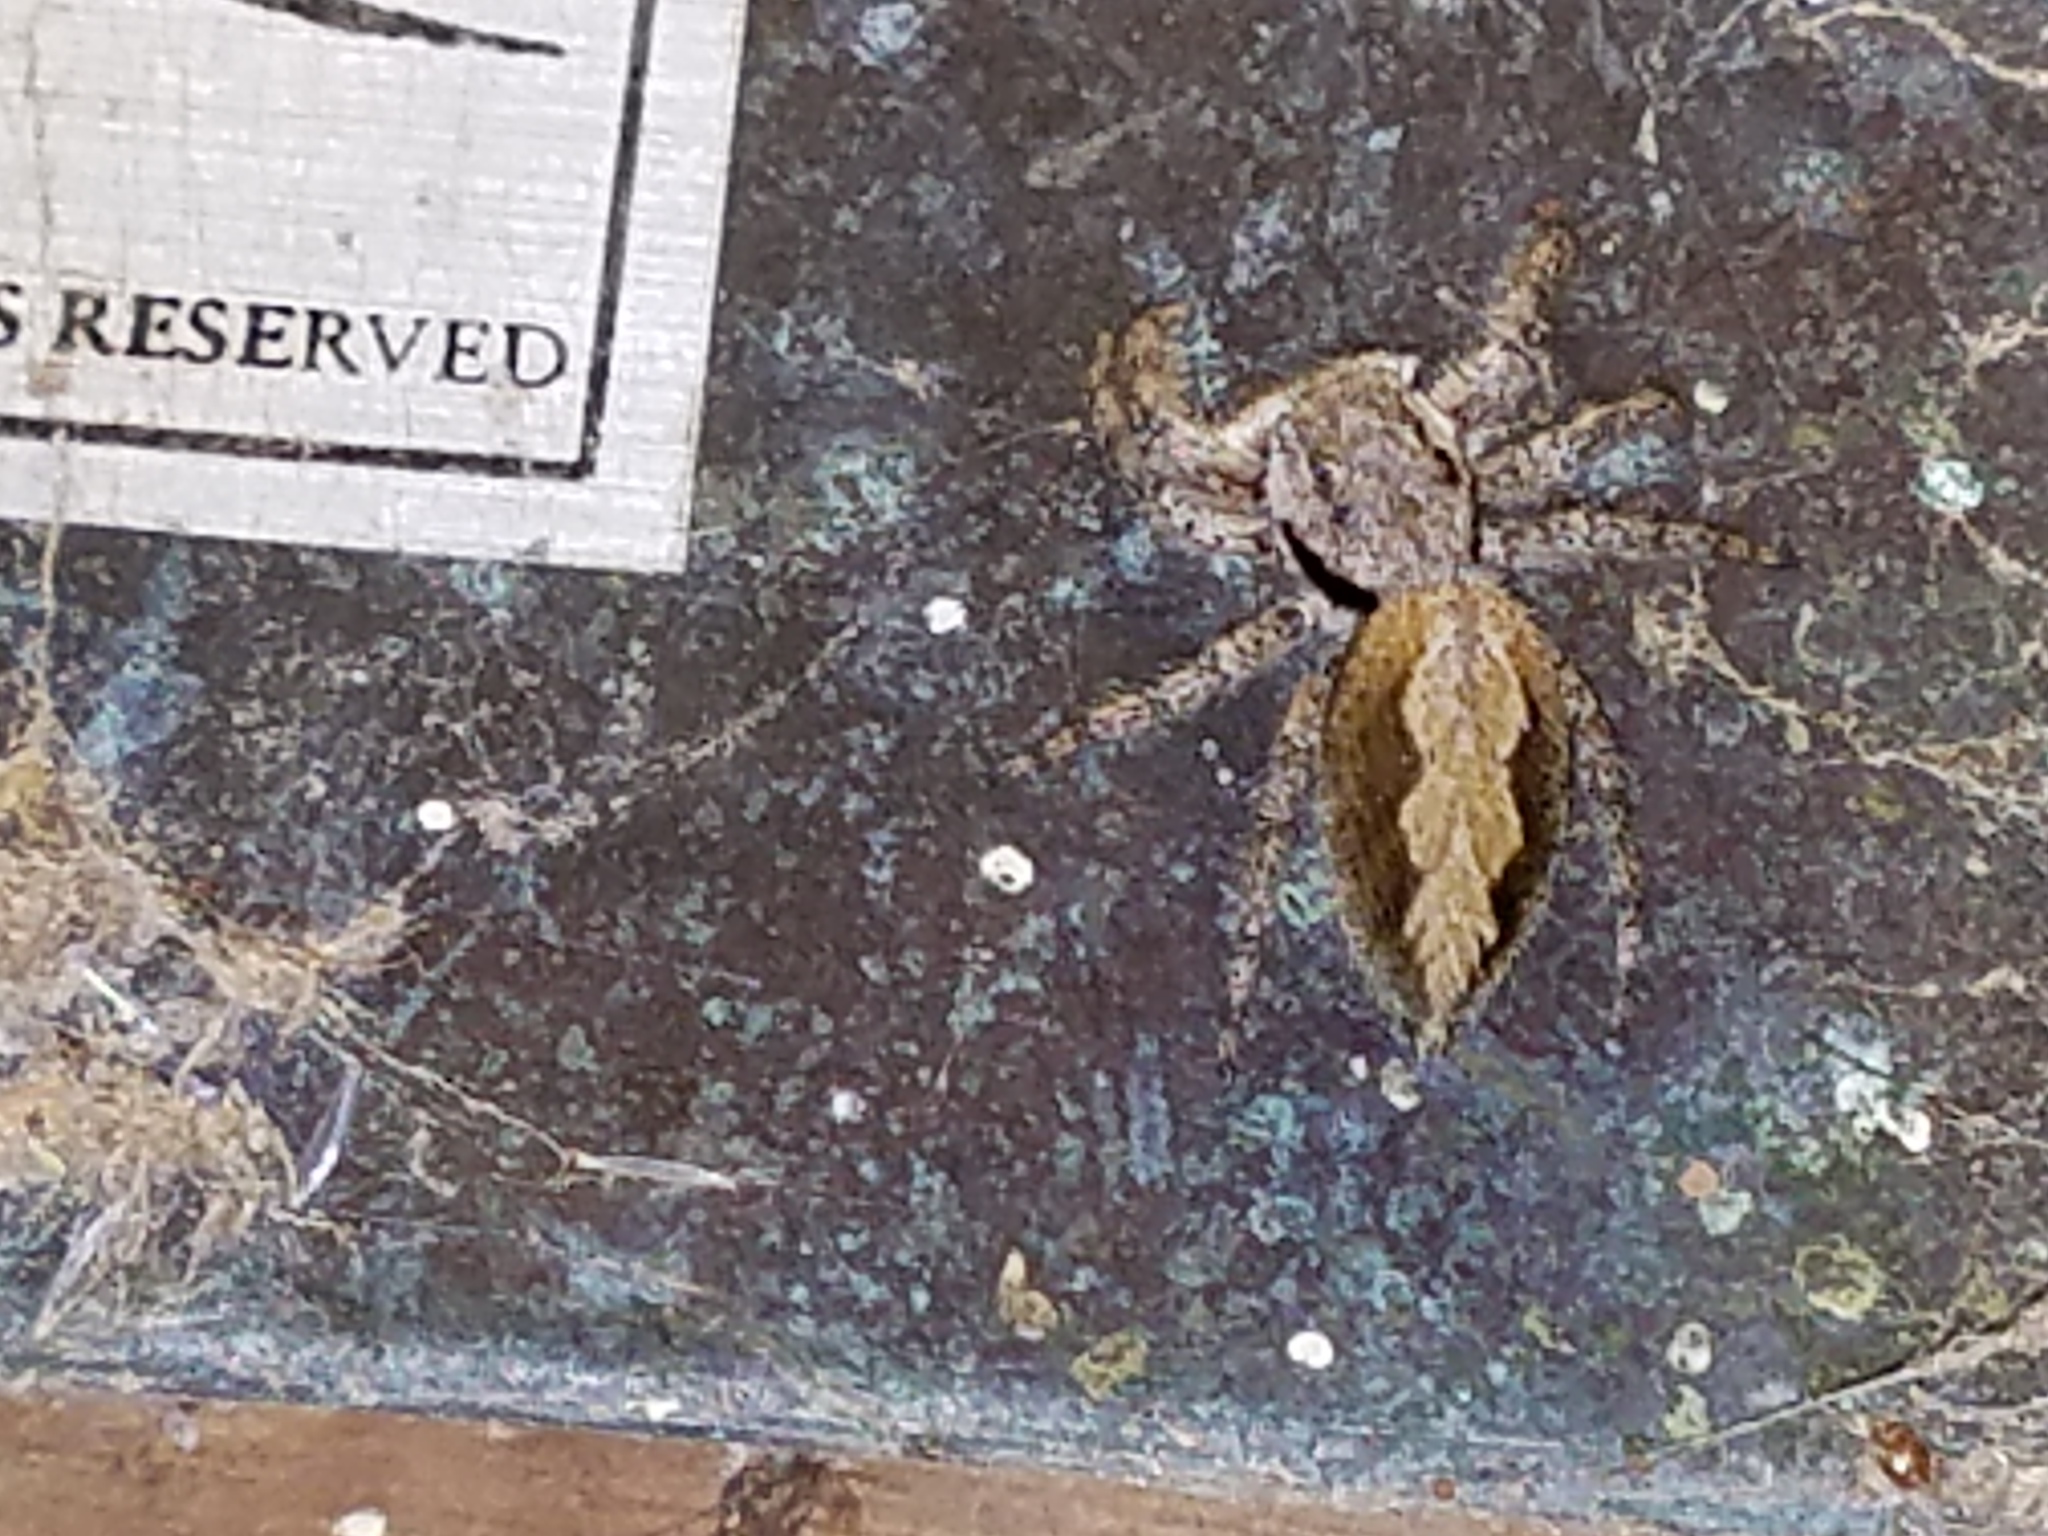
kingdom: Animalia
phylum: Arthropoda
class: Arachnida
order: Araneae
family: Salticidae
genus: Platycryptus
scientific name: Platycryptus undatus
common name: Tan jumping spider
